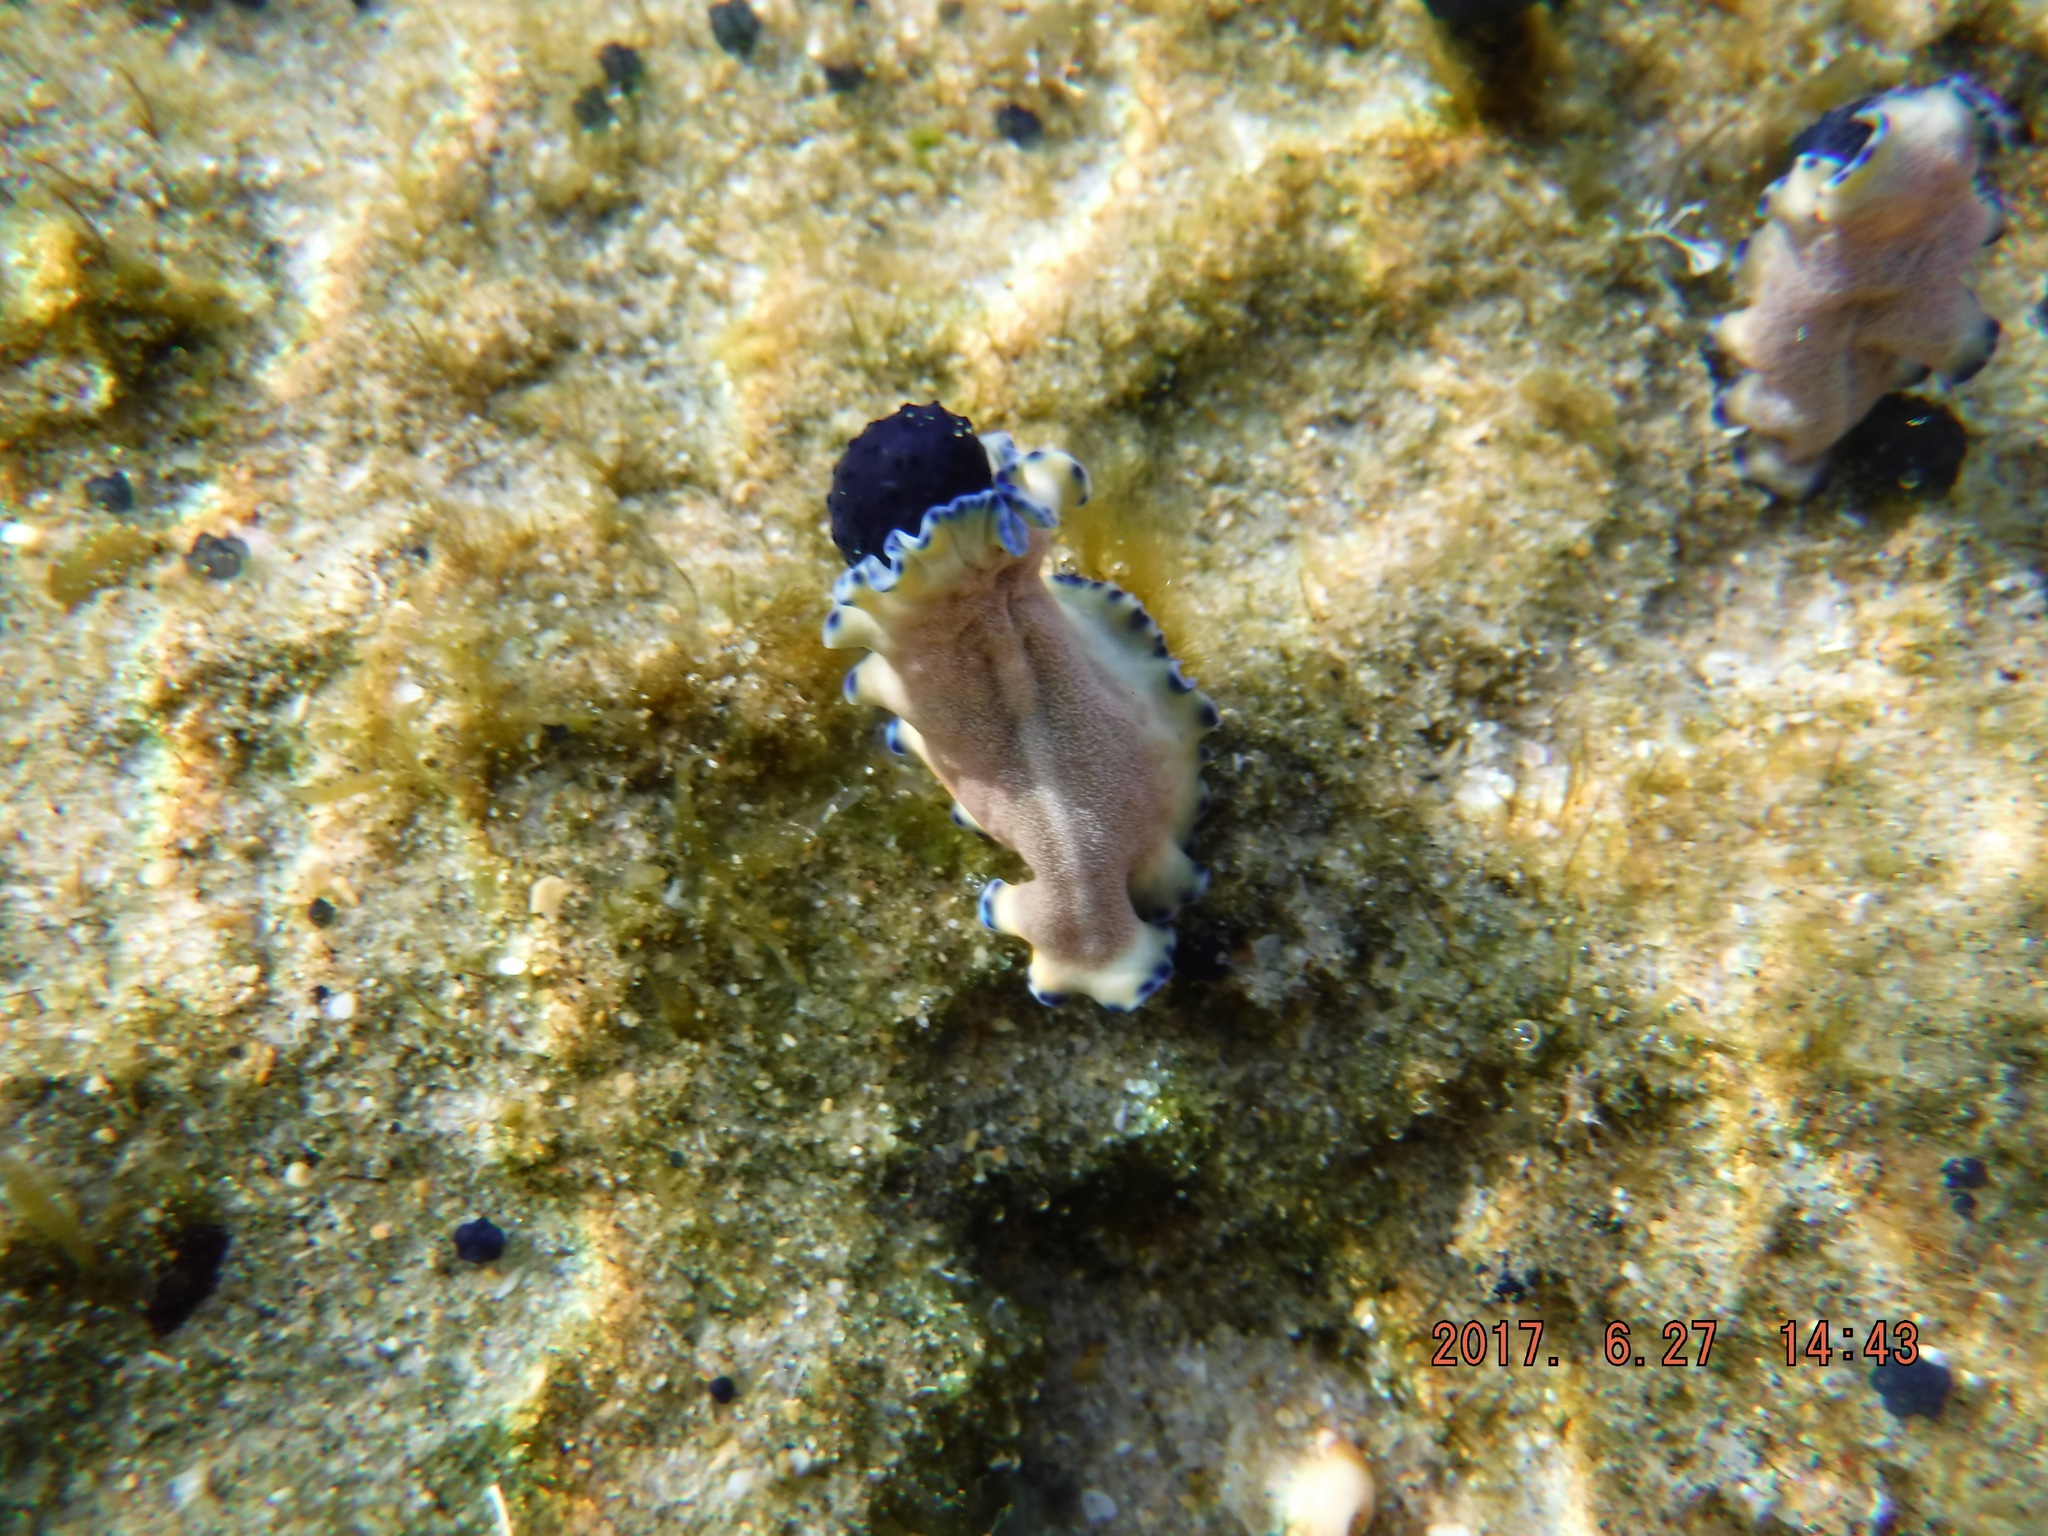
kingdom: Animalia
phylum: Platyhelminthes
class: Turbellaria
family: Pseudocerotidae
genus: Pseudoceros
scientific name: Pseudoceros indicus
